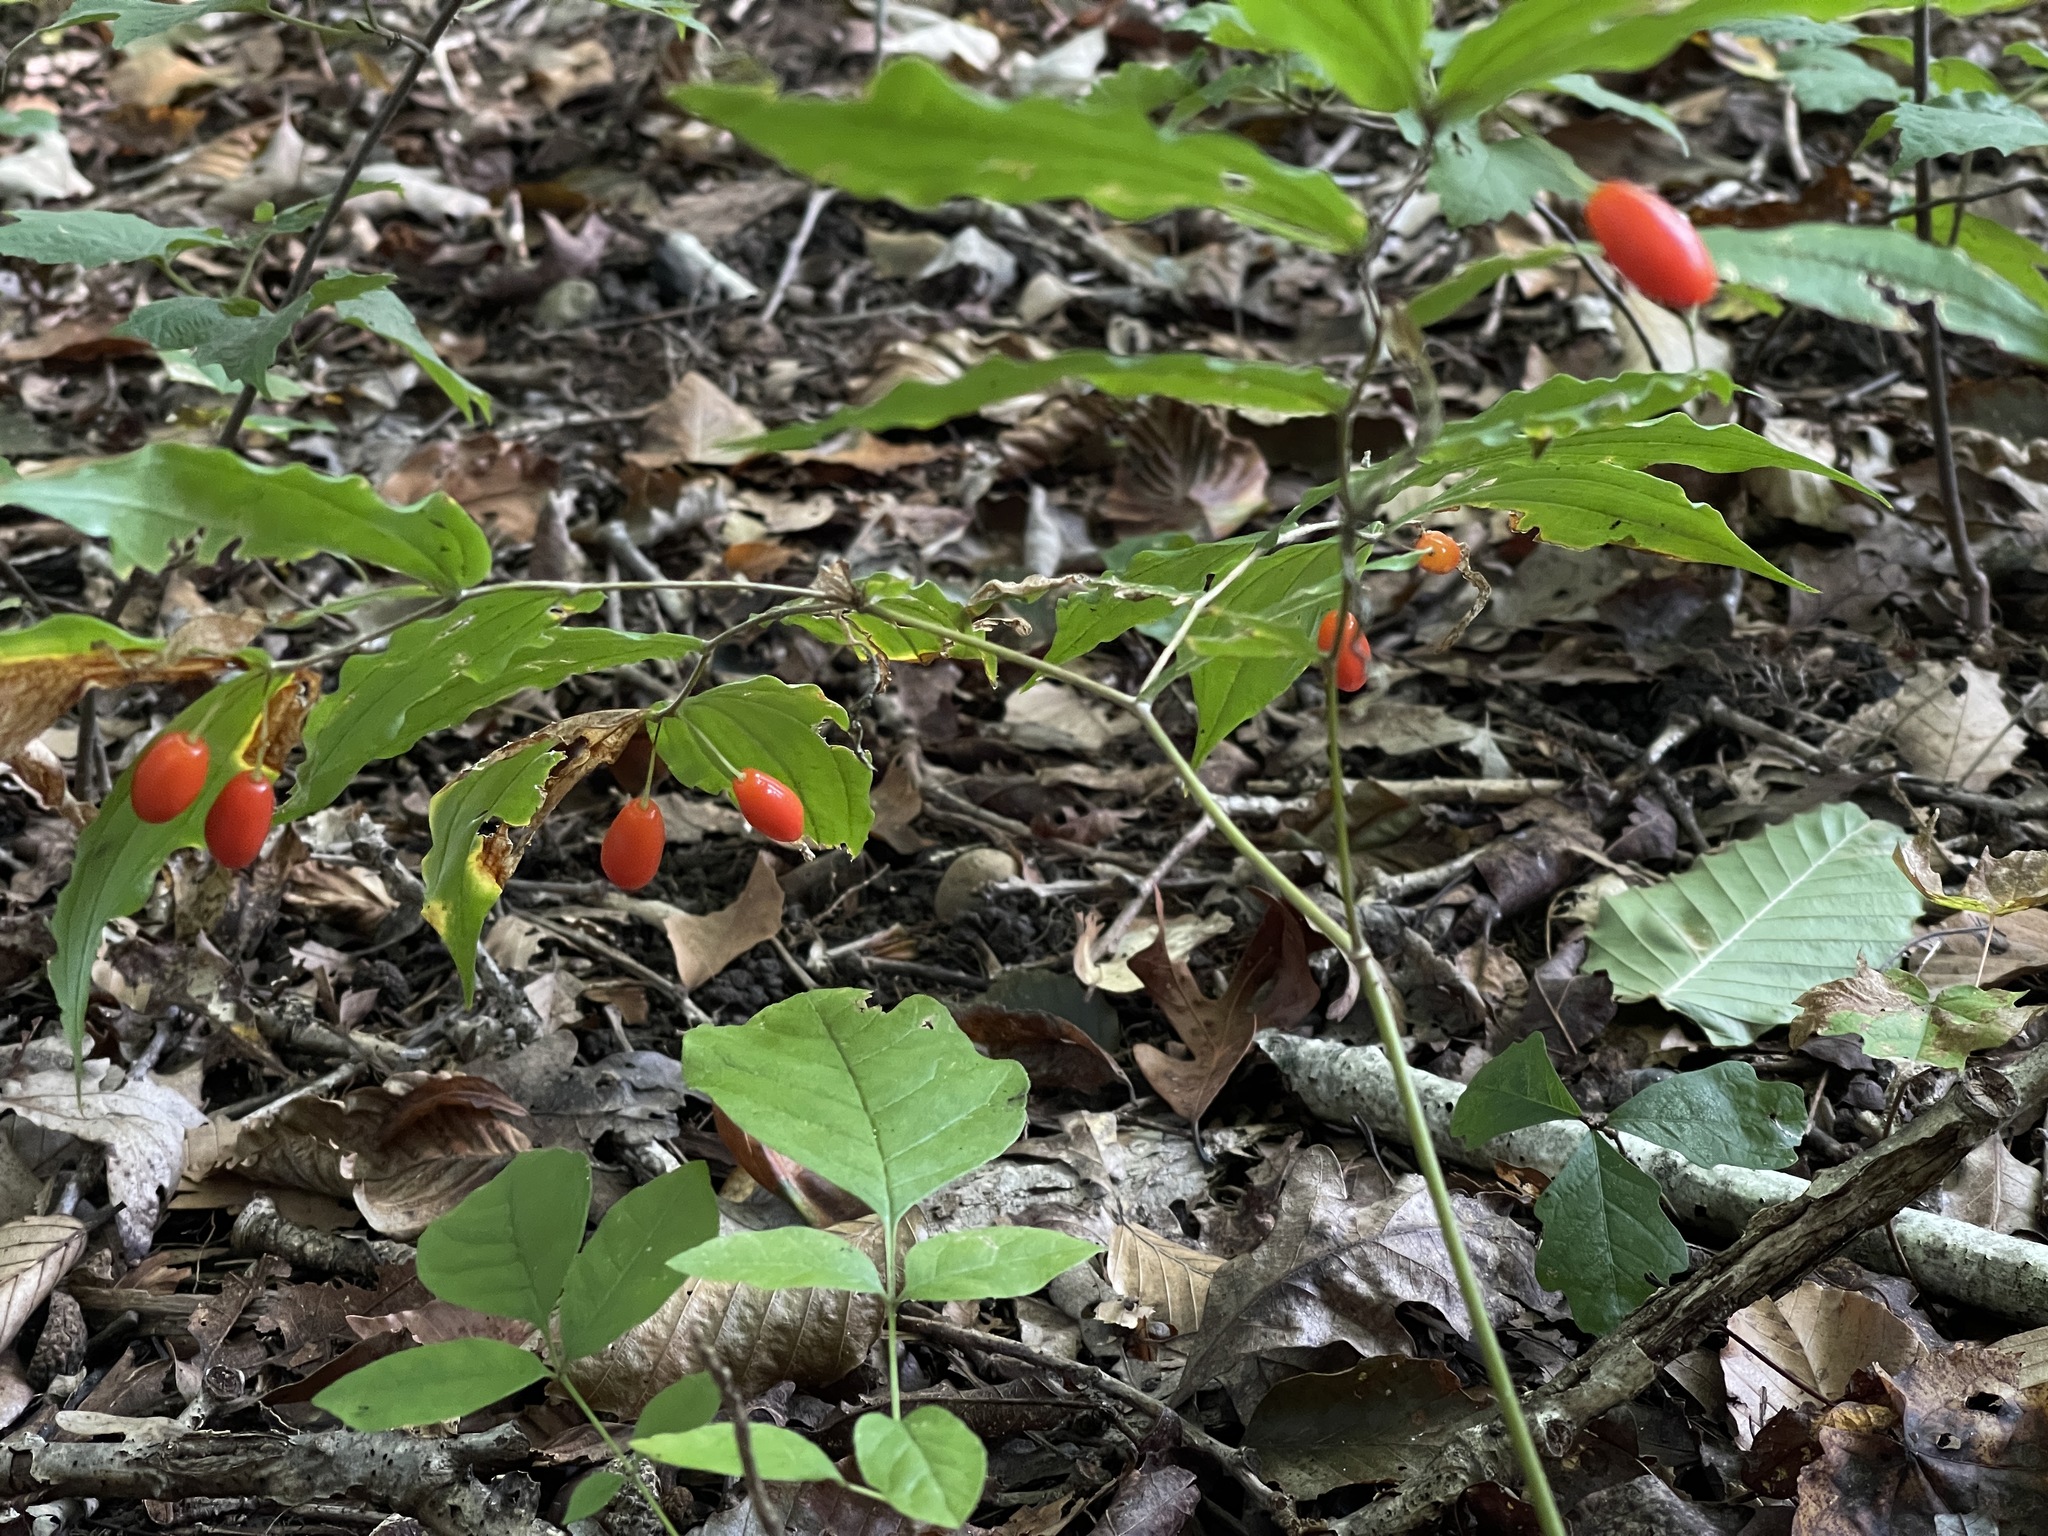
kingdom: Plantae
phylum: Tracheophyta
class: Liliopsida
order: Liliales
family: Liliaceae
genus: Prosartes
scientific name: Prosartes lanuginosa
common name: Hairy mandarin
